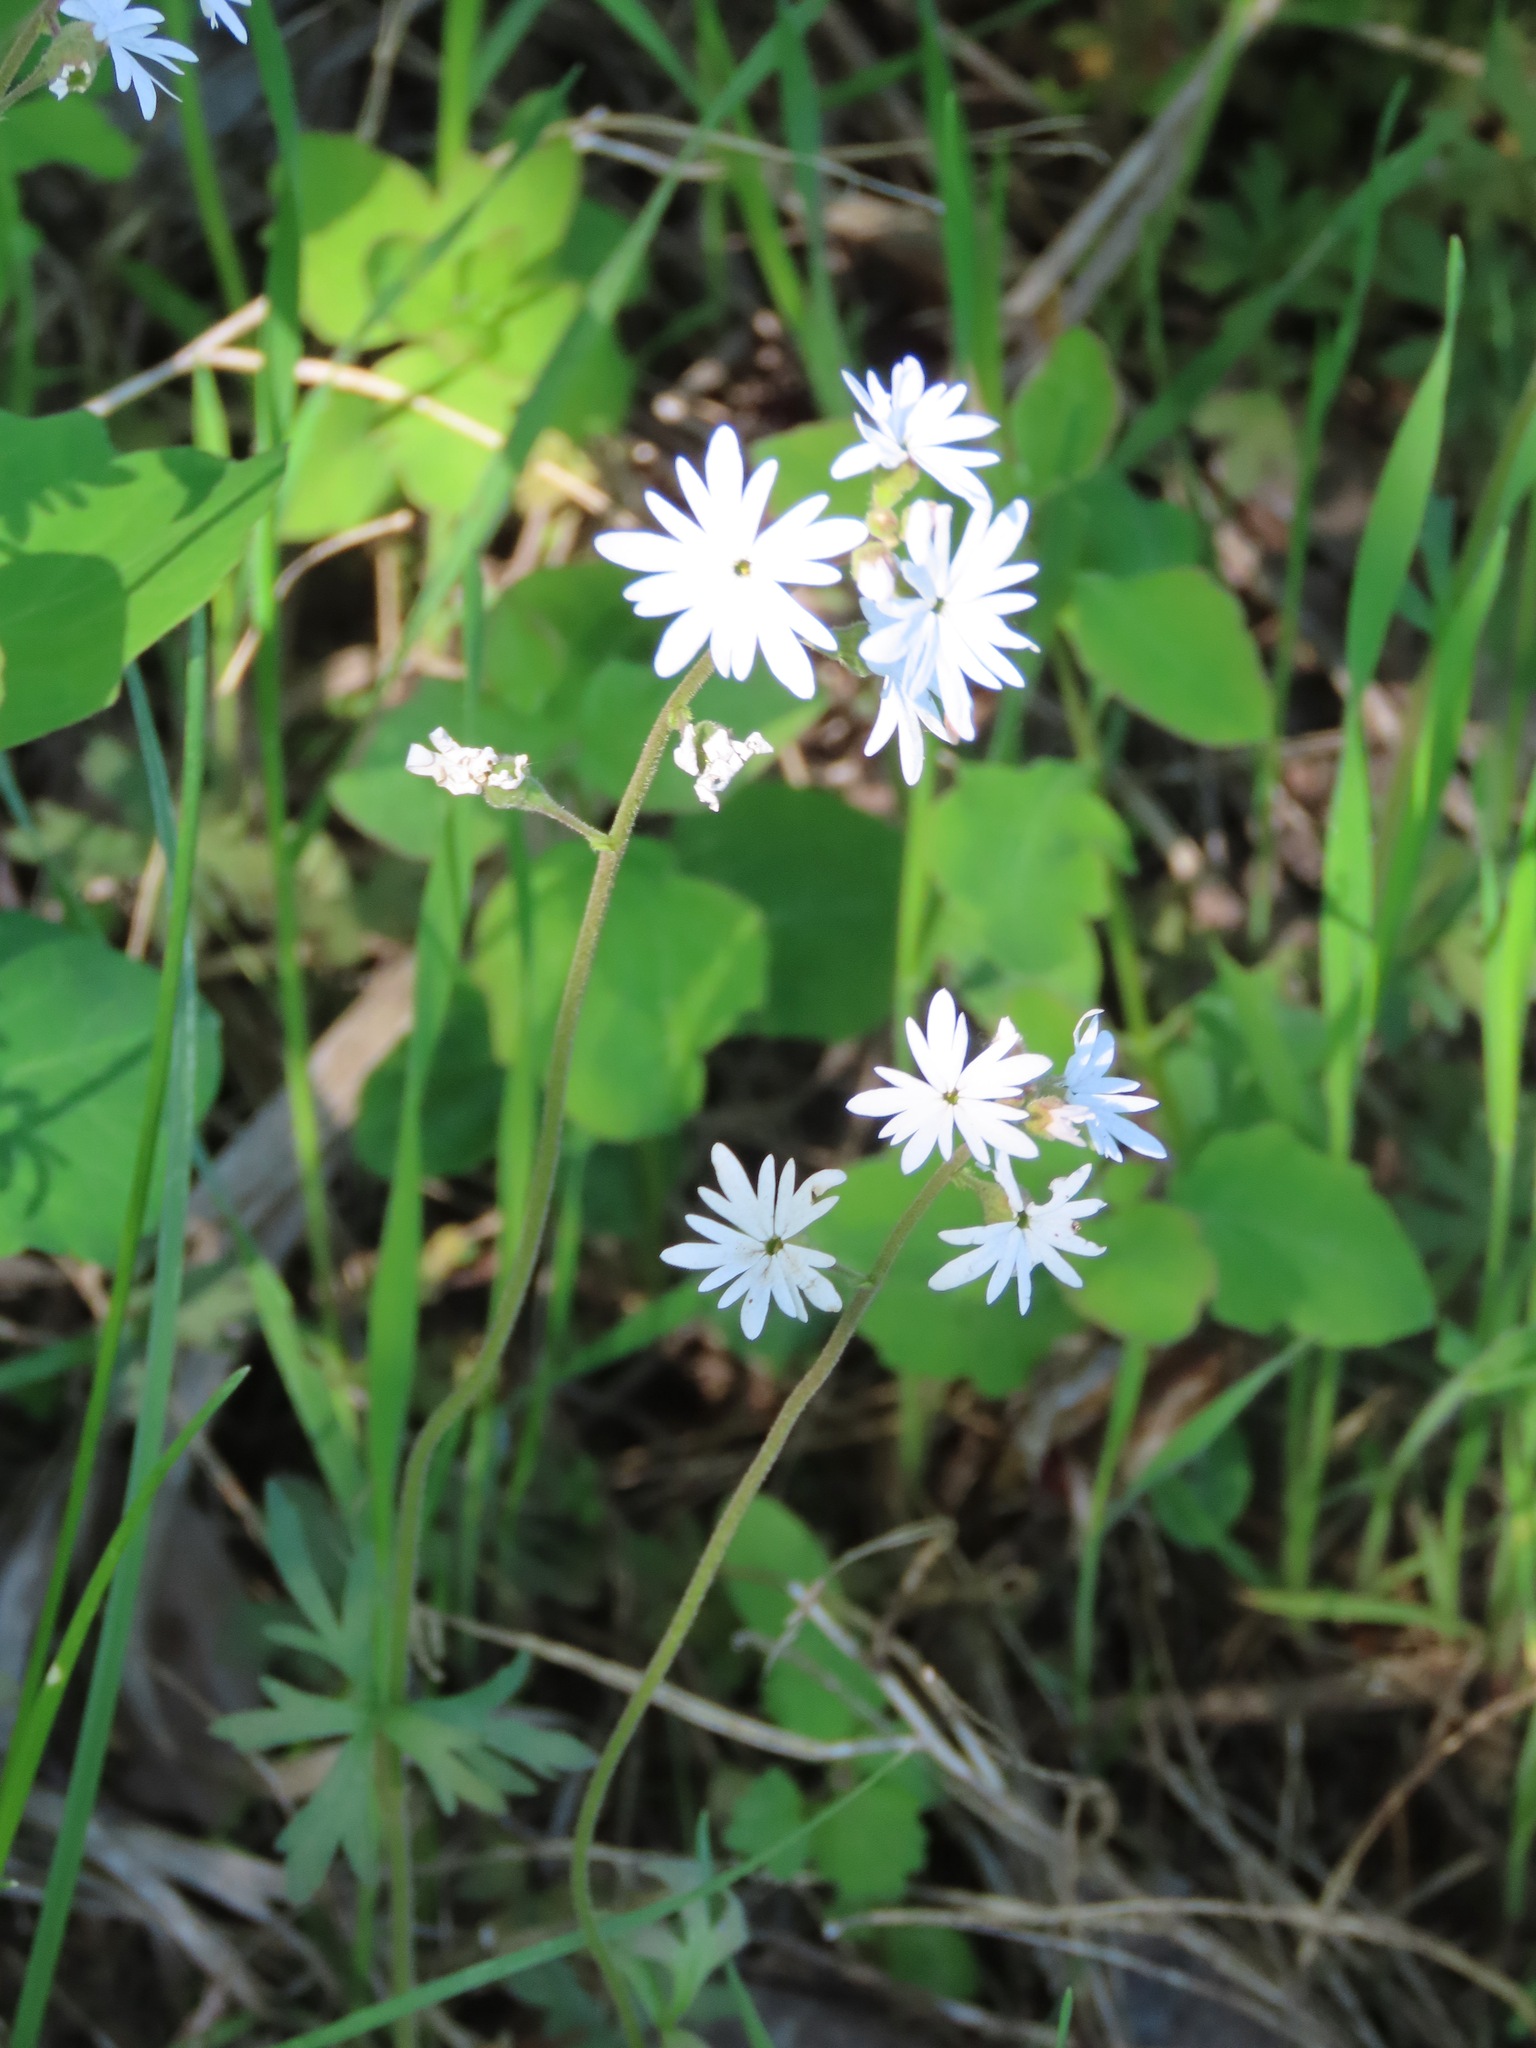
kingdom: Plantae
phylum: Tracheophyta
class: Magnoliopsida
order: Saxifragales
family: Saxifragaceae
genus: Lithophragma
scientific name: Lithophragma parviflorum
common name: Small-flowered fringe-cup
